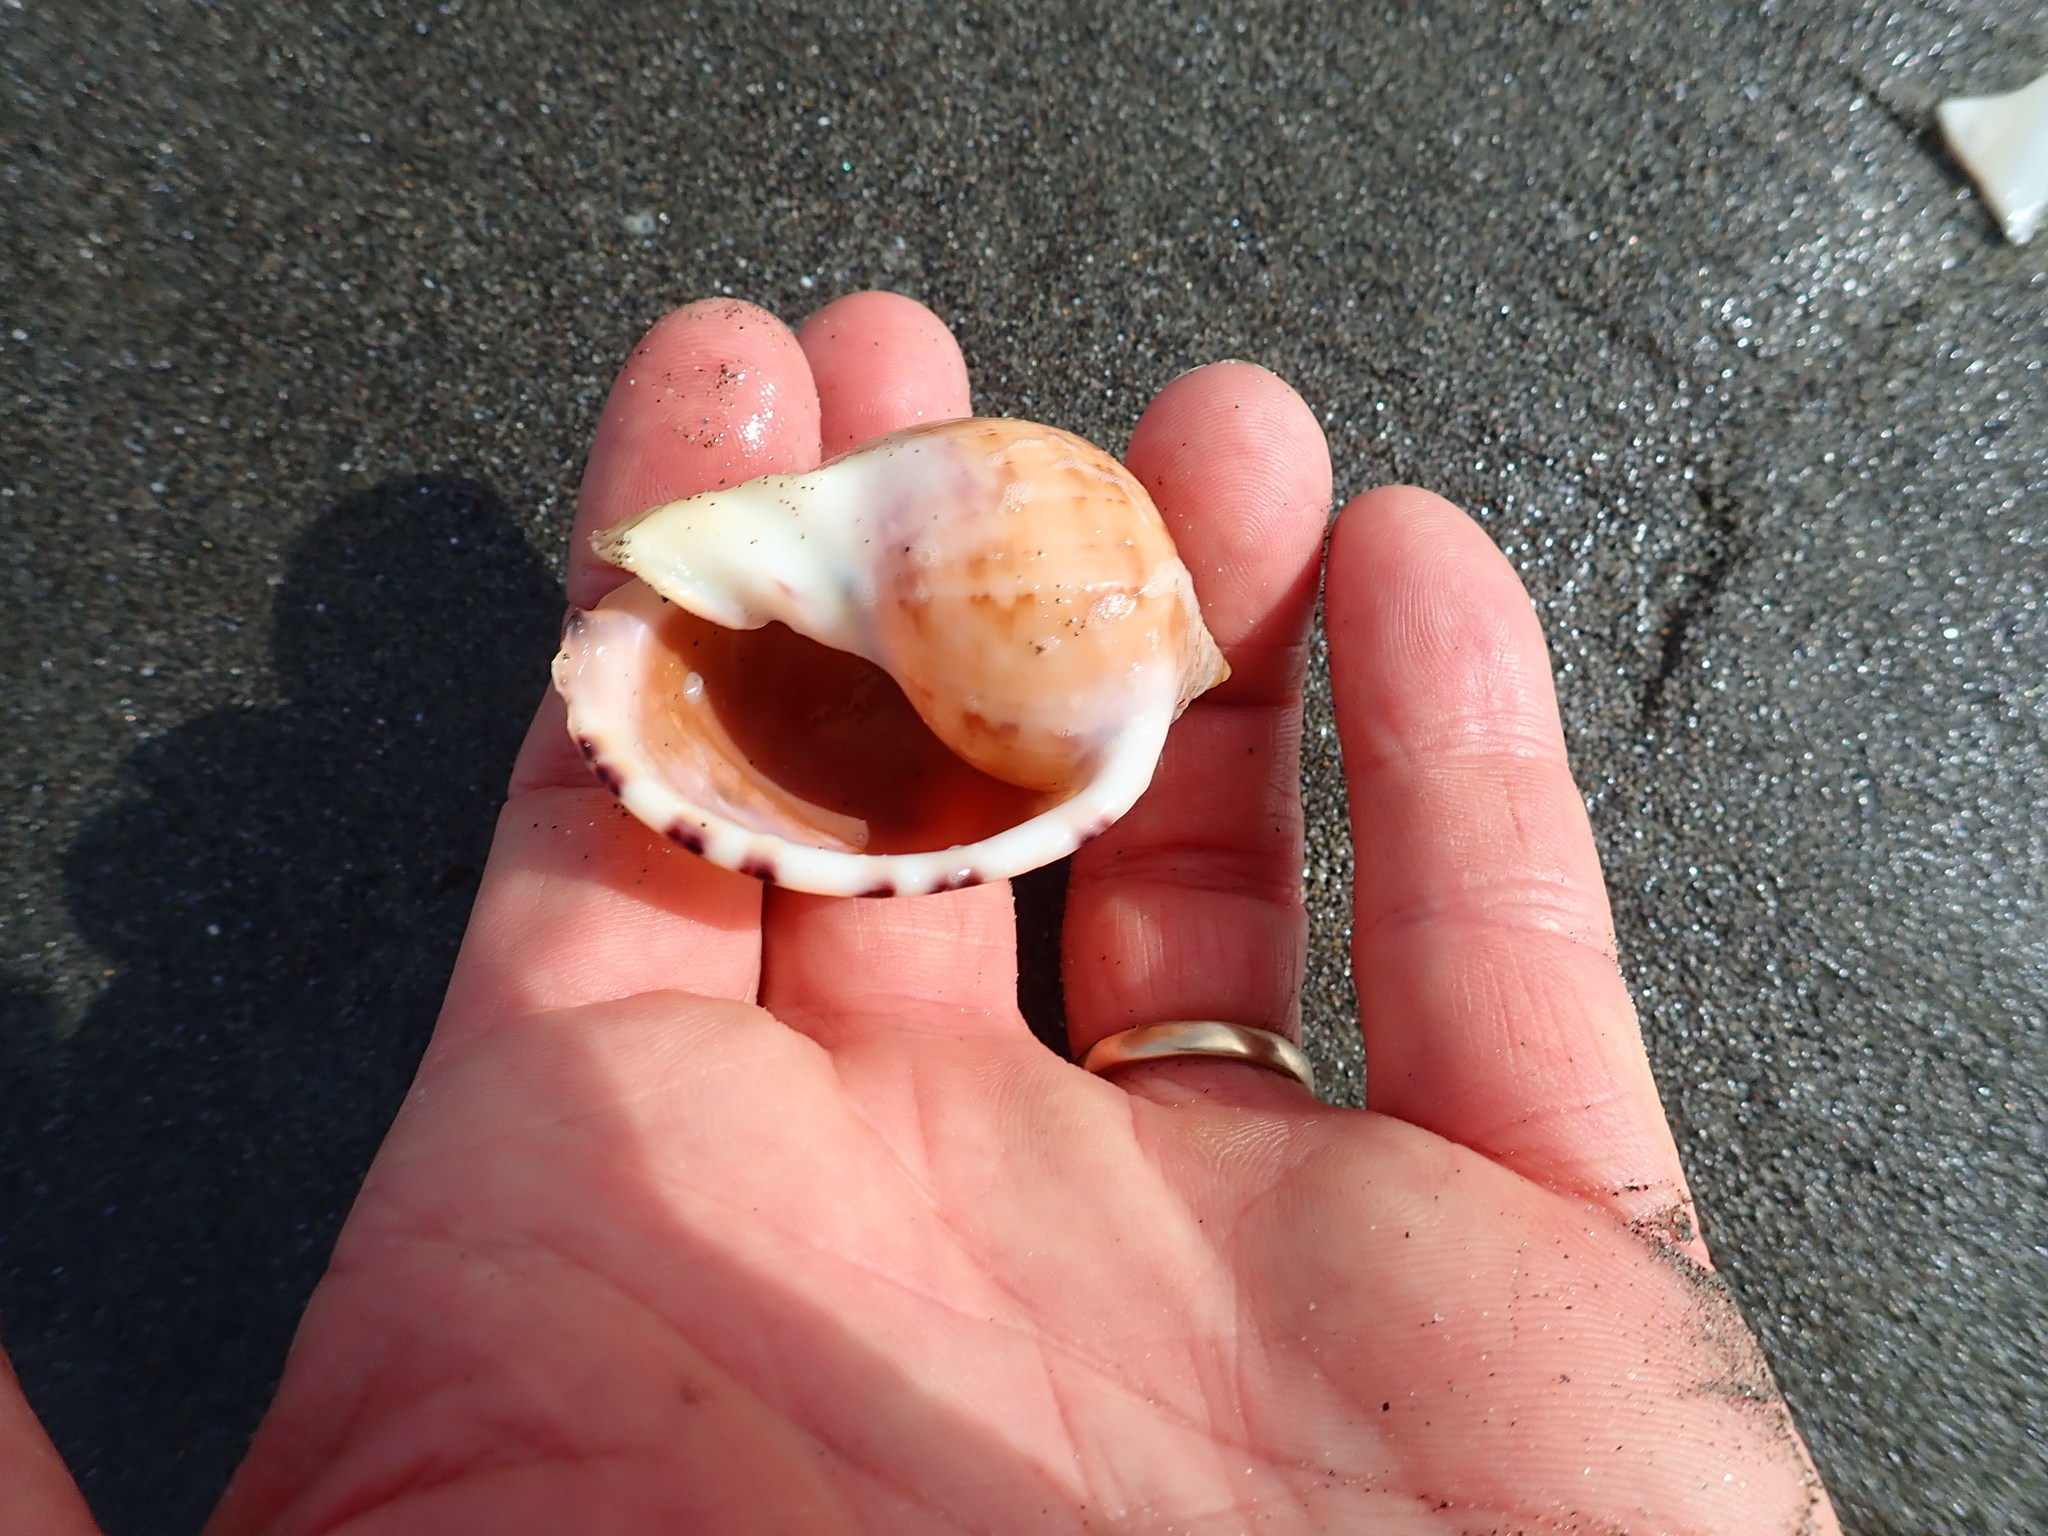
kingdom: Animalia
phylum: Mollusca
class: Gastropoda
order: Littorinimorpha
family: Cassidae
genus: Semicassis
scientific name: Semicassis pyrum
